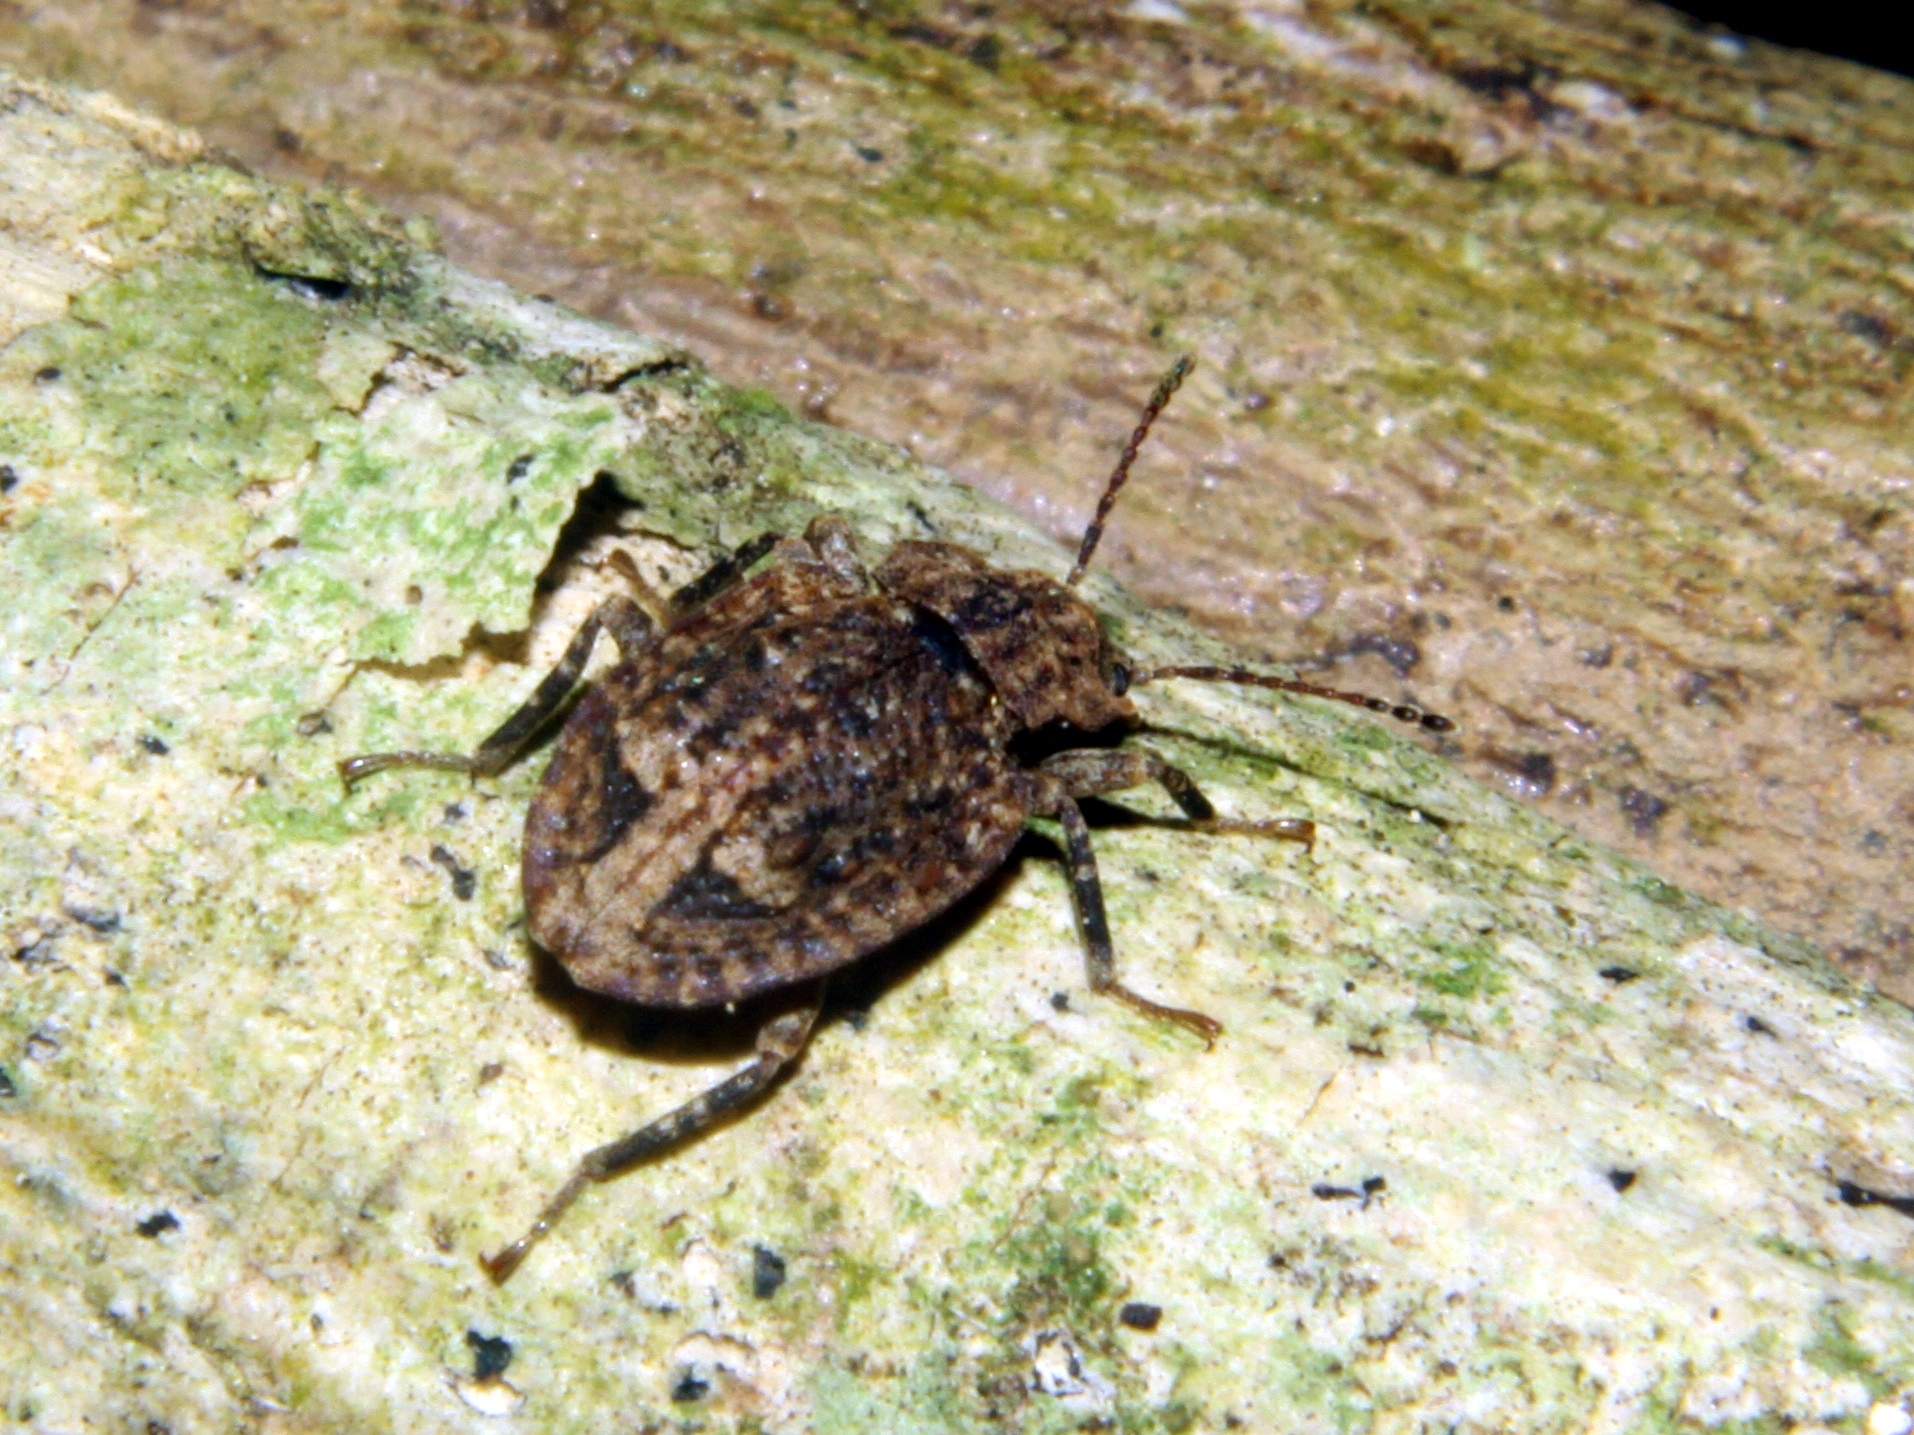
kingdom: Animalia
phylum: Arthropoda
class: Insecta
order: Coleoptera
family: Ulodidae
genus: Syrphetodes
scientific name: Syrphetodes marginatus
